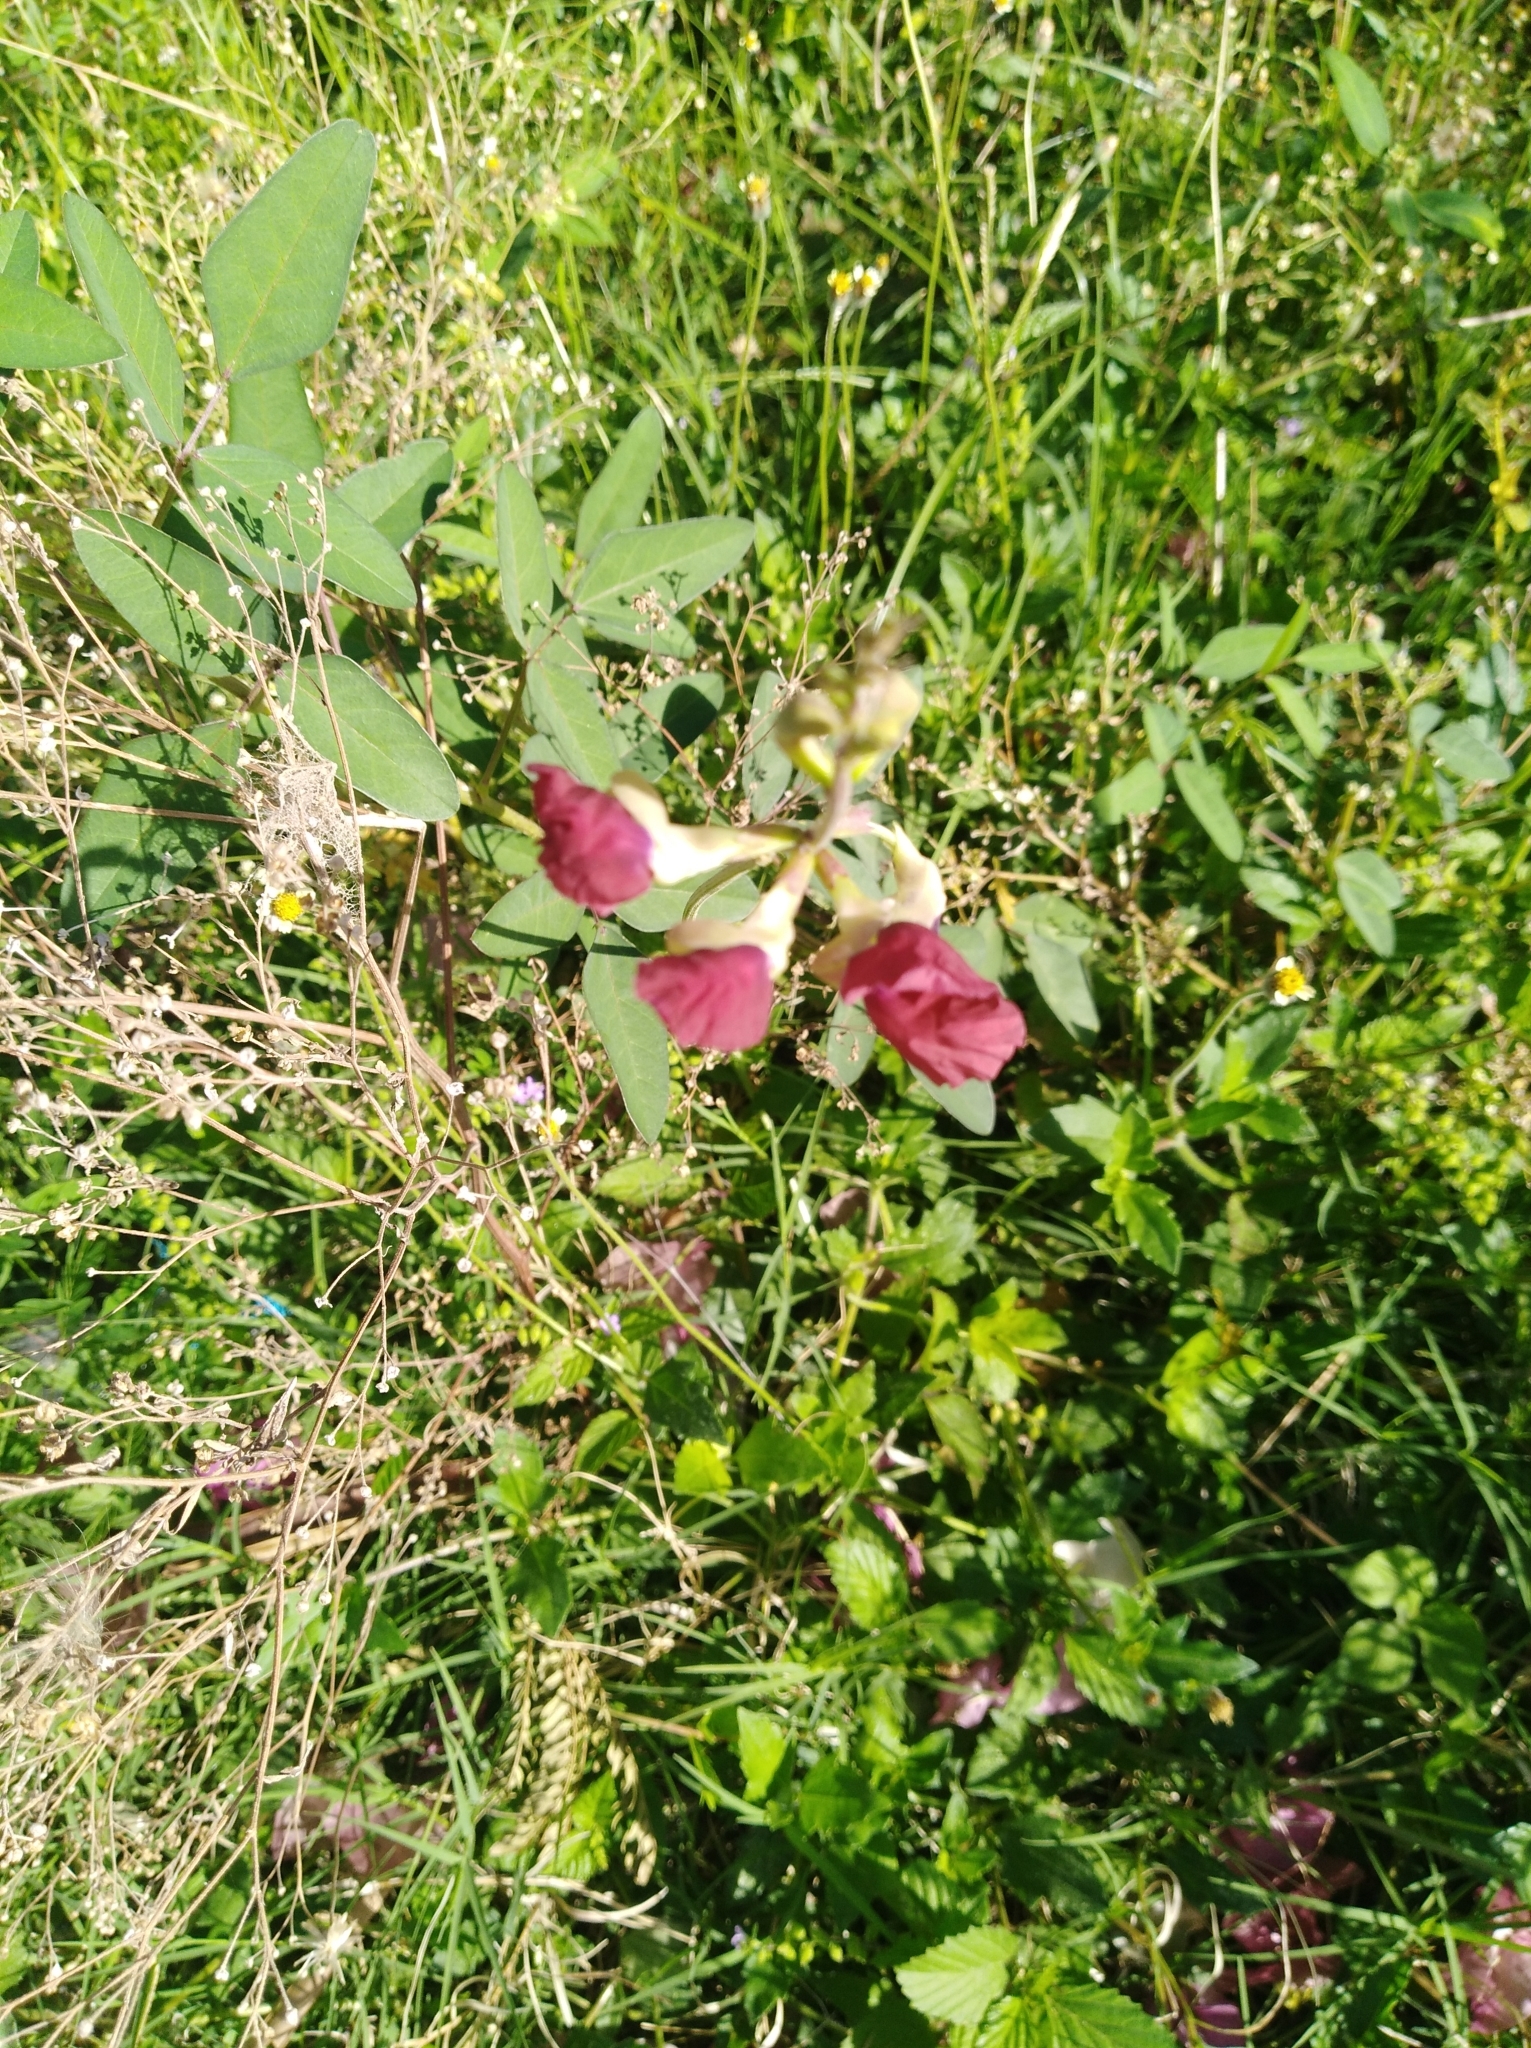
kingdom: Plantae
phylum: Tracheophyta
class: Magnoliopsida
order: Fabales
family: Fabaceae
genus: Macroptilium
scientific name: Macroptilium lathyroides
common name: Wild bushbean
